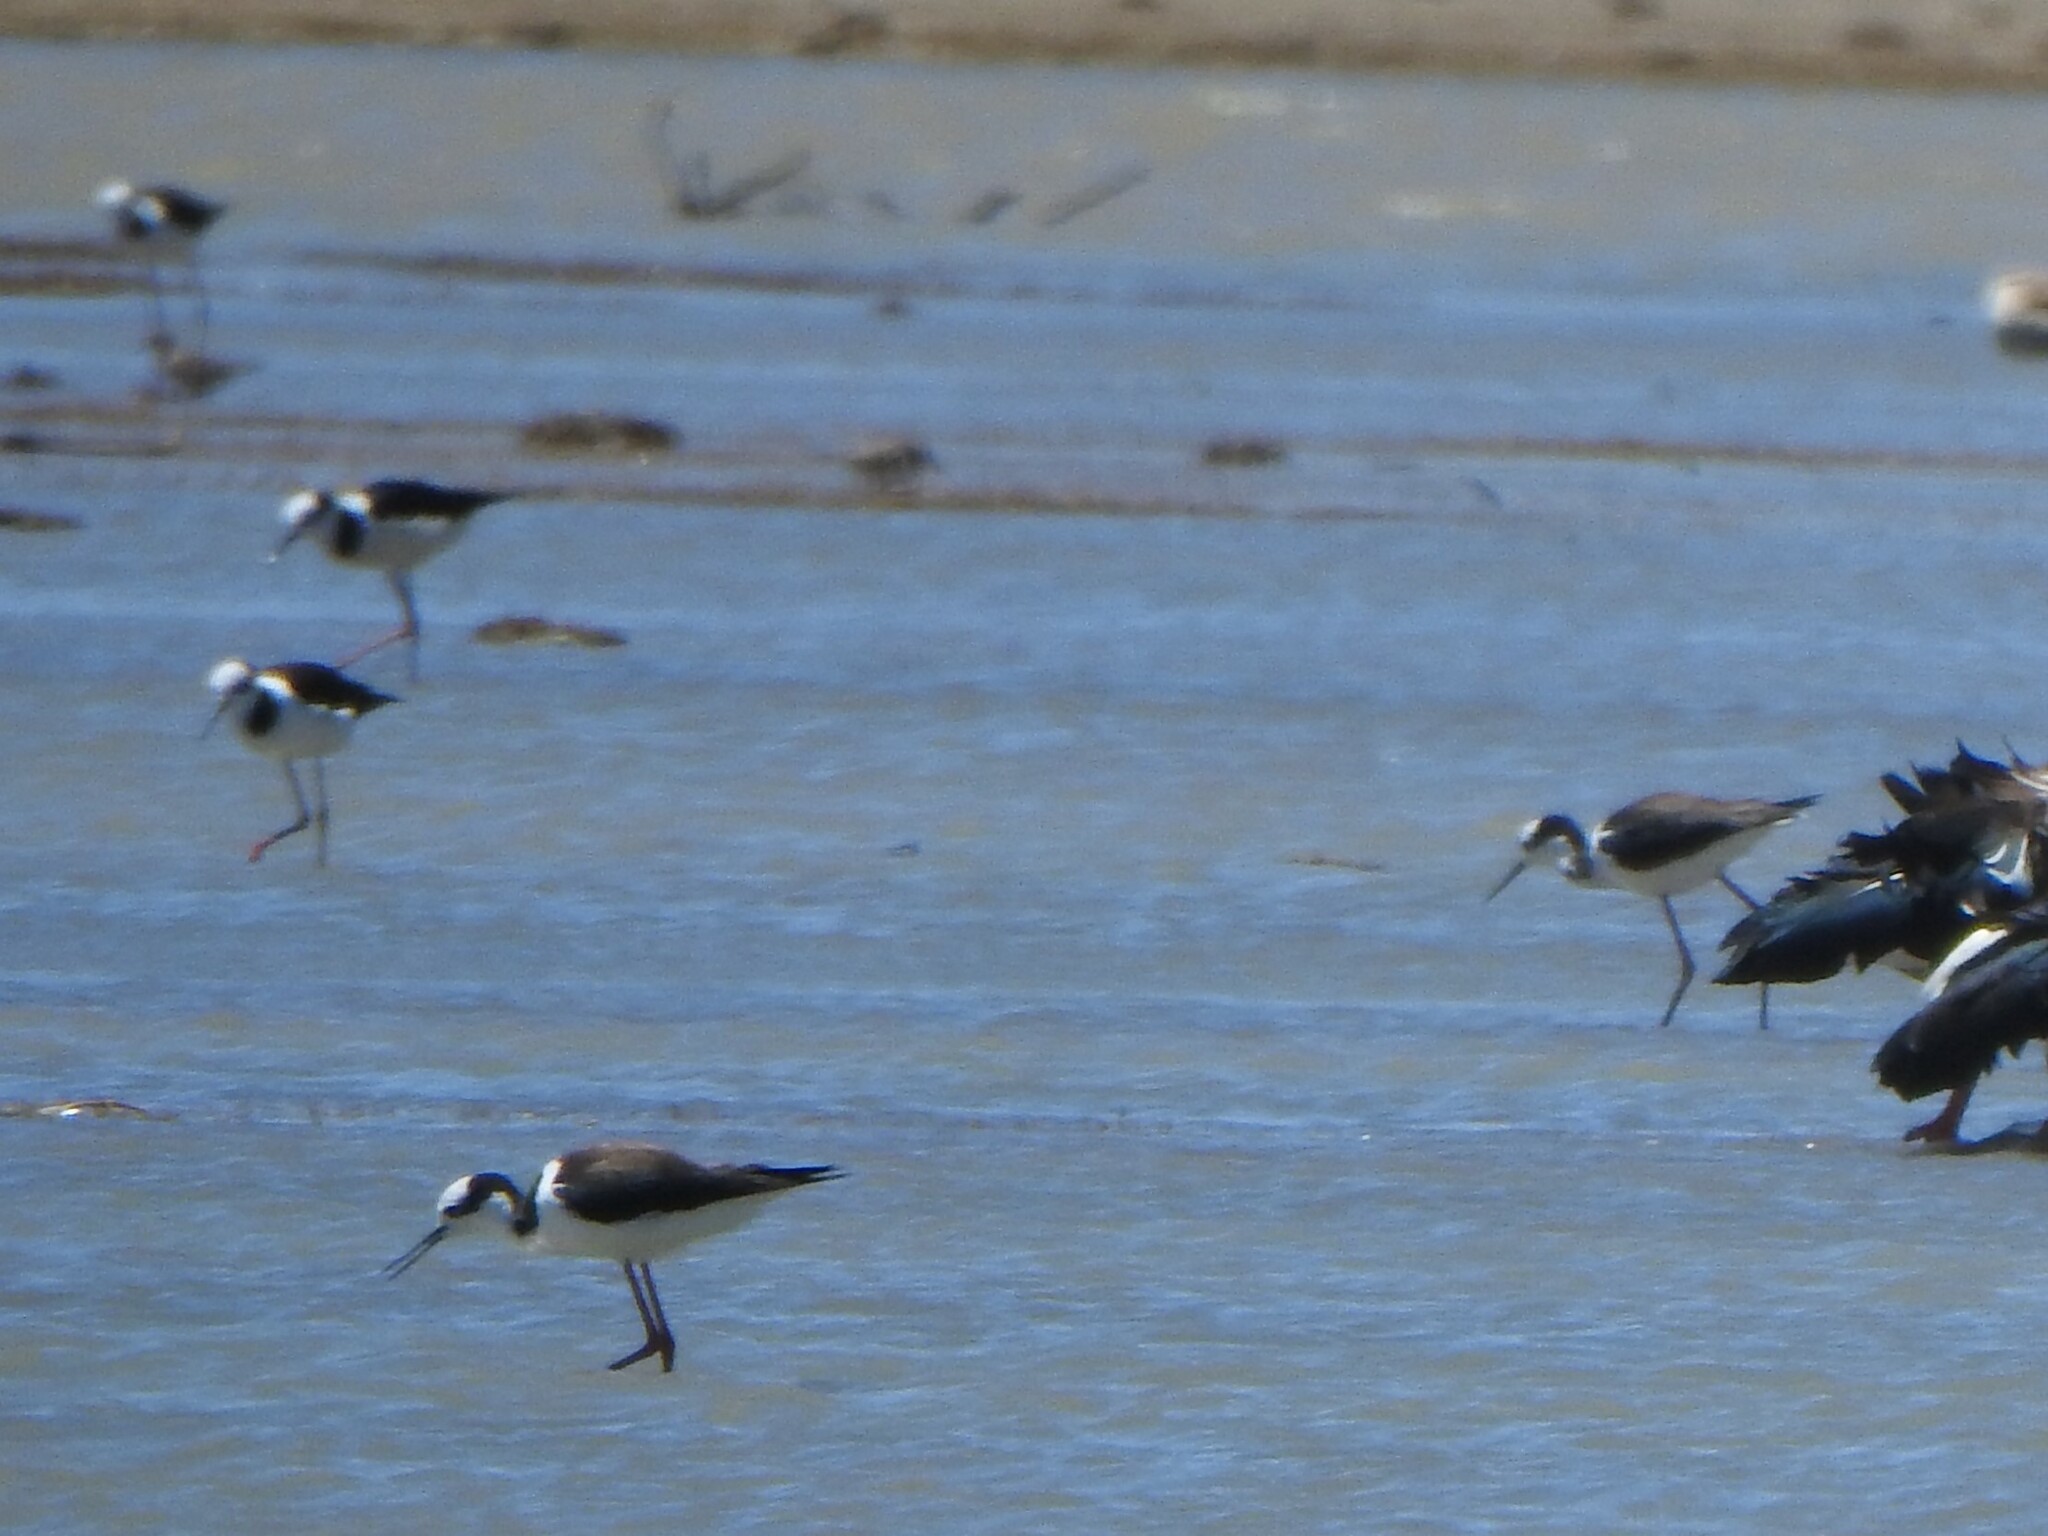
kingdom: Animalia
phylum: Chordata
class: Aves
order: Charadriiformes
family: Recurvirostridae
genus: Himantopus
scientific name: Himantopus mexicanus
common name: Black-necked stilt
